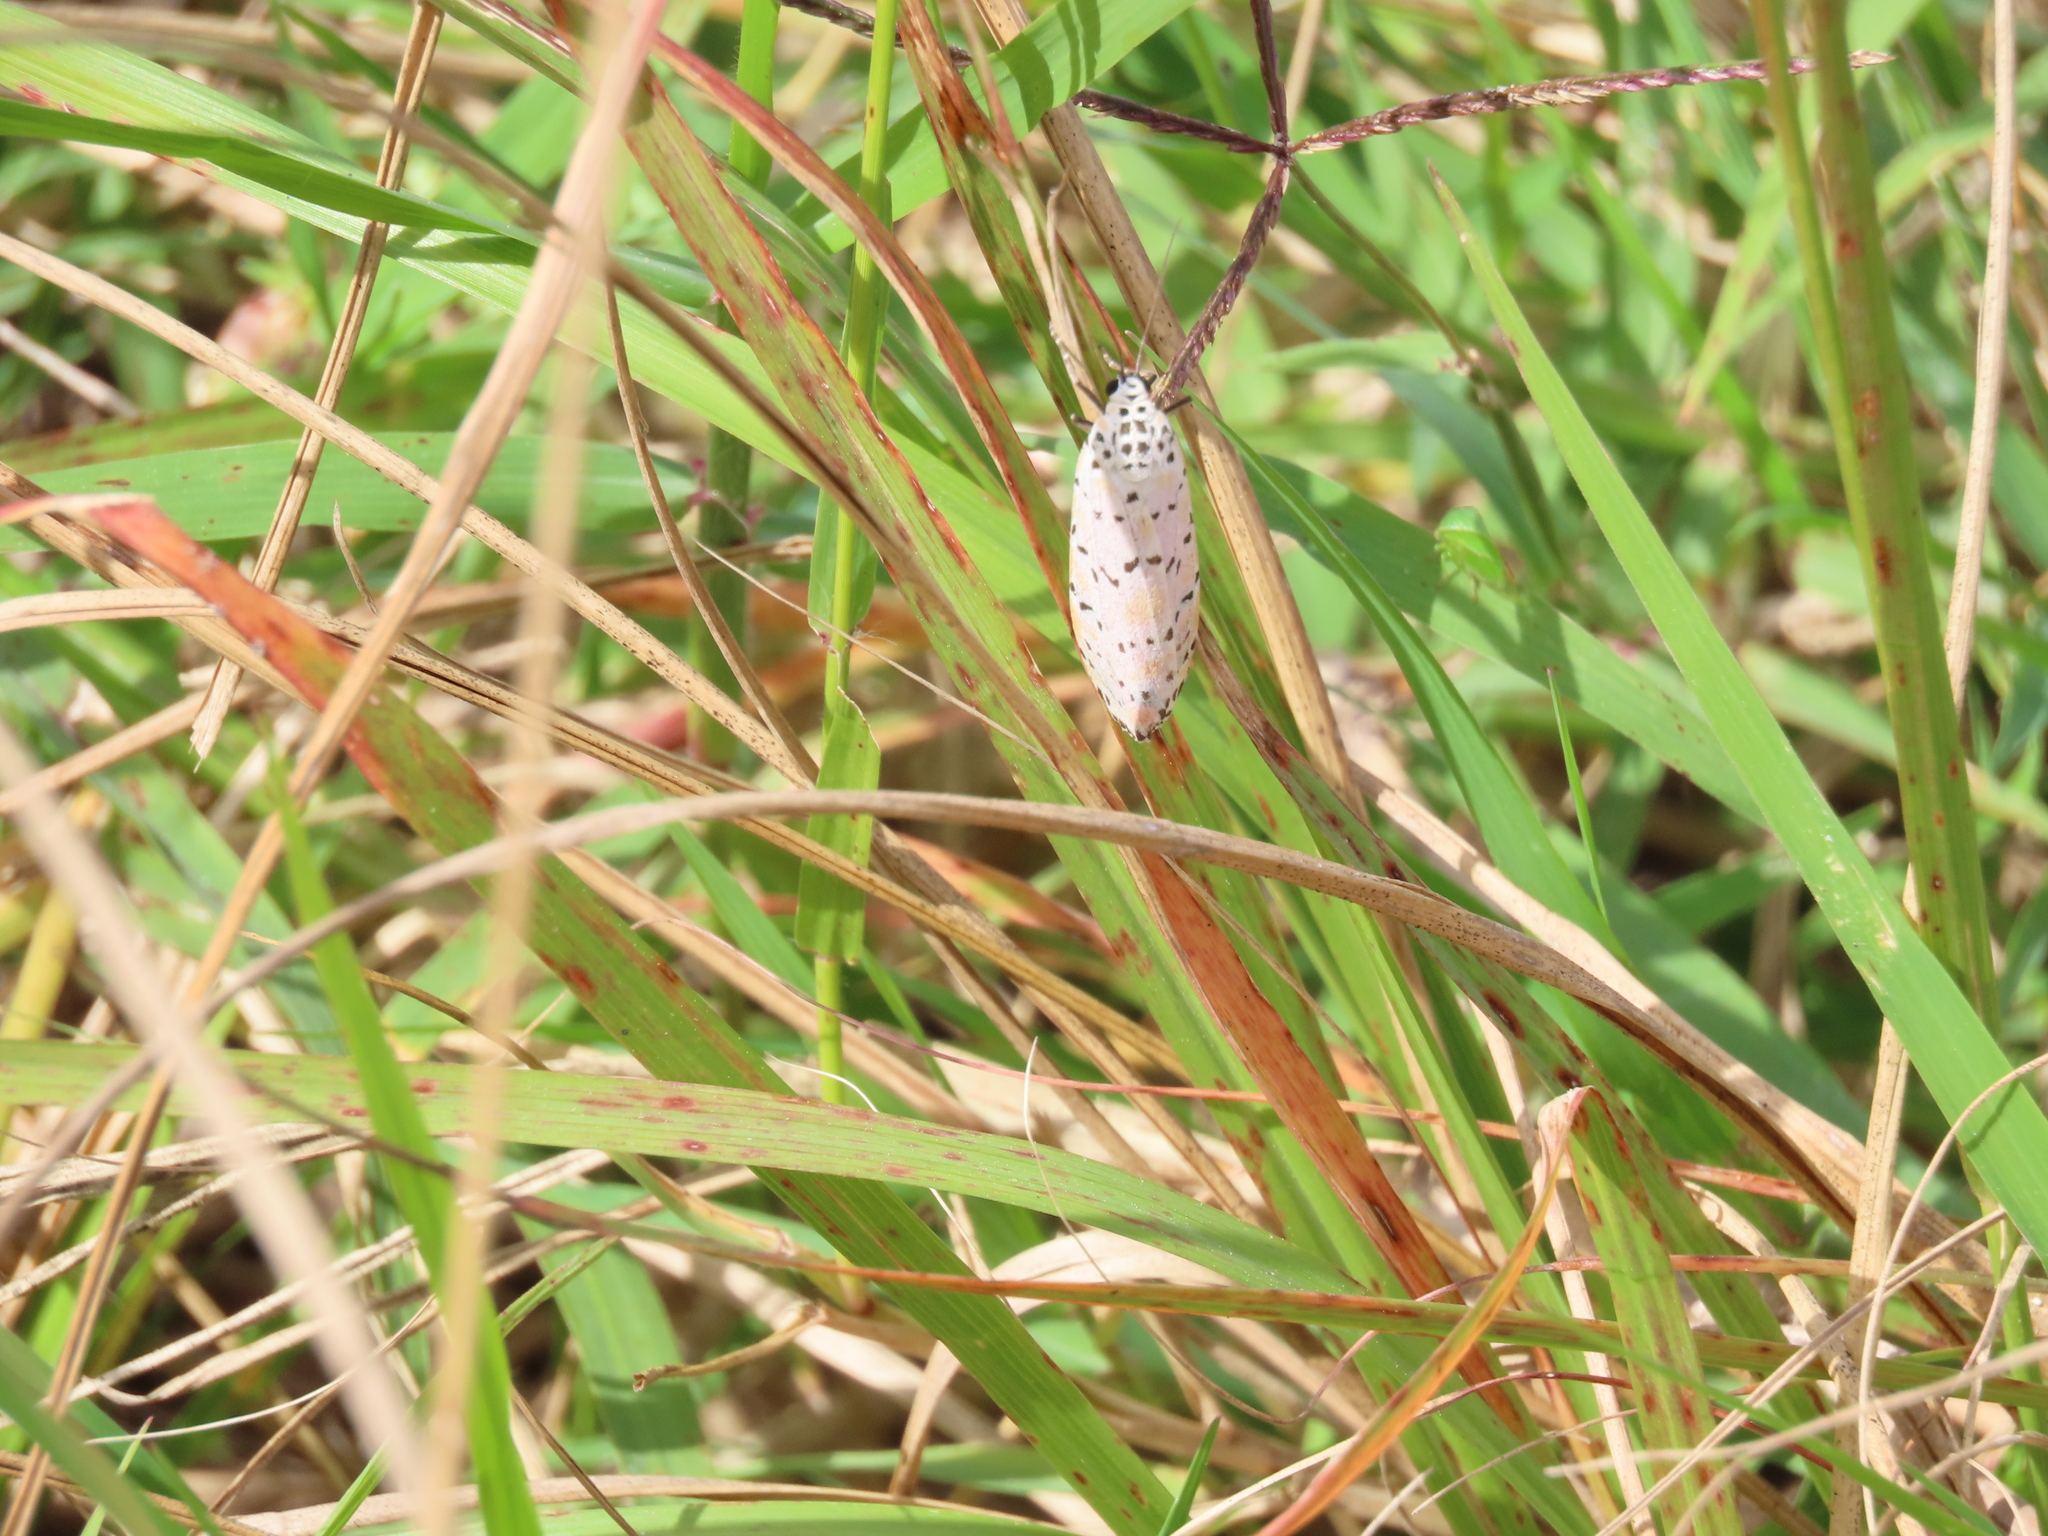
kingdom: Animalia
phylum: Arthropoda
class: Insecta
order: Lepidoptera
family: Erebidae
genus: Utetheisa
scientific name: Utetheisa ornatrix
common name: Beautiful utetheisa
